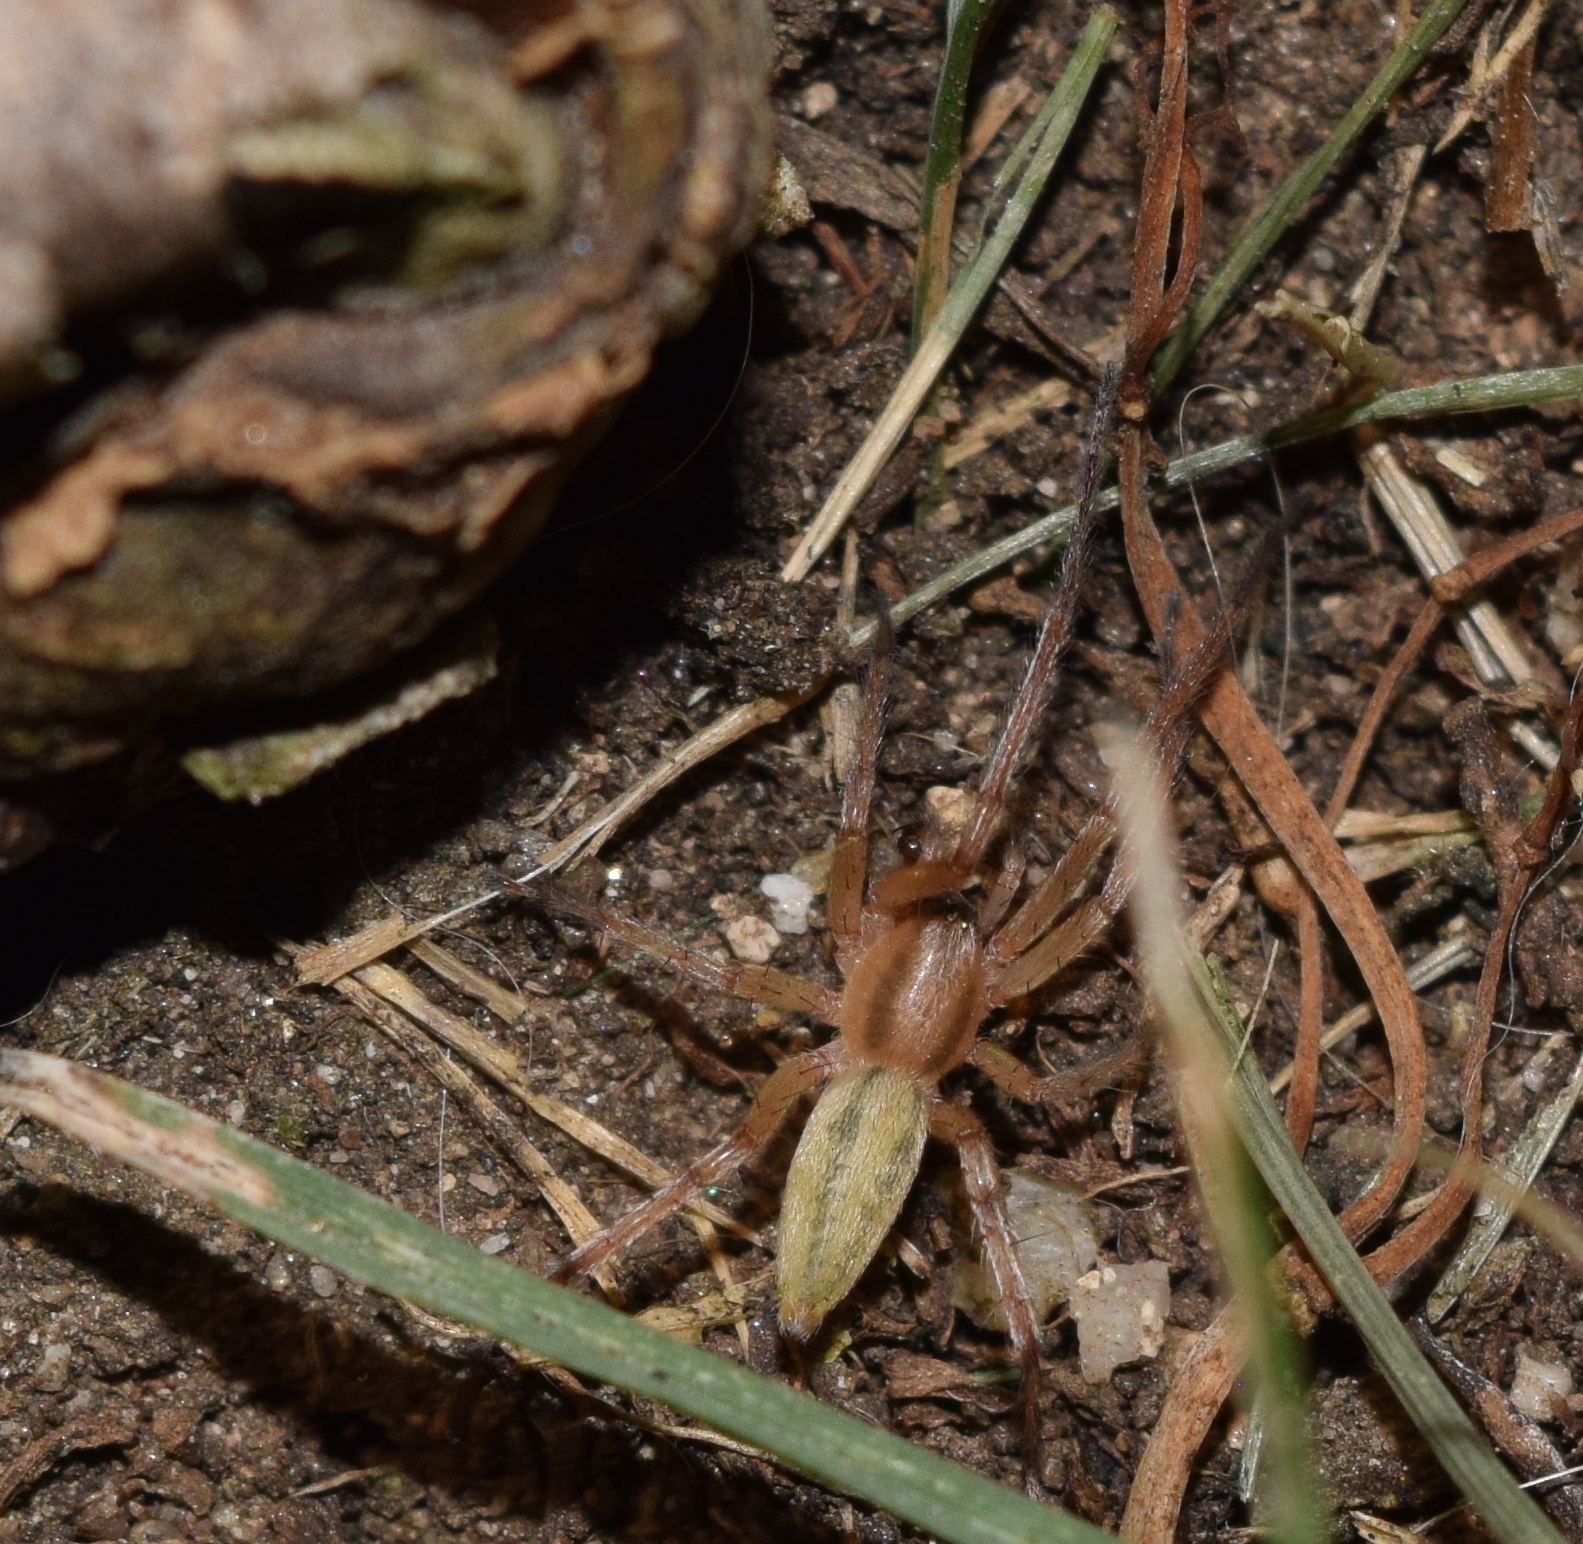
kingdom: Animalia
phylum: Arthropoda
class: Arachnida
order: Araneae
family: Anyphaenidae
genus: Hibana
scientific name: Hibana incursa
